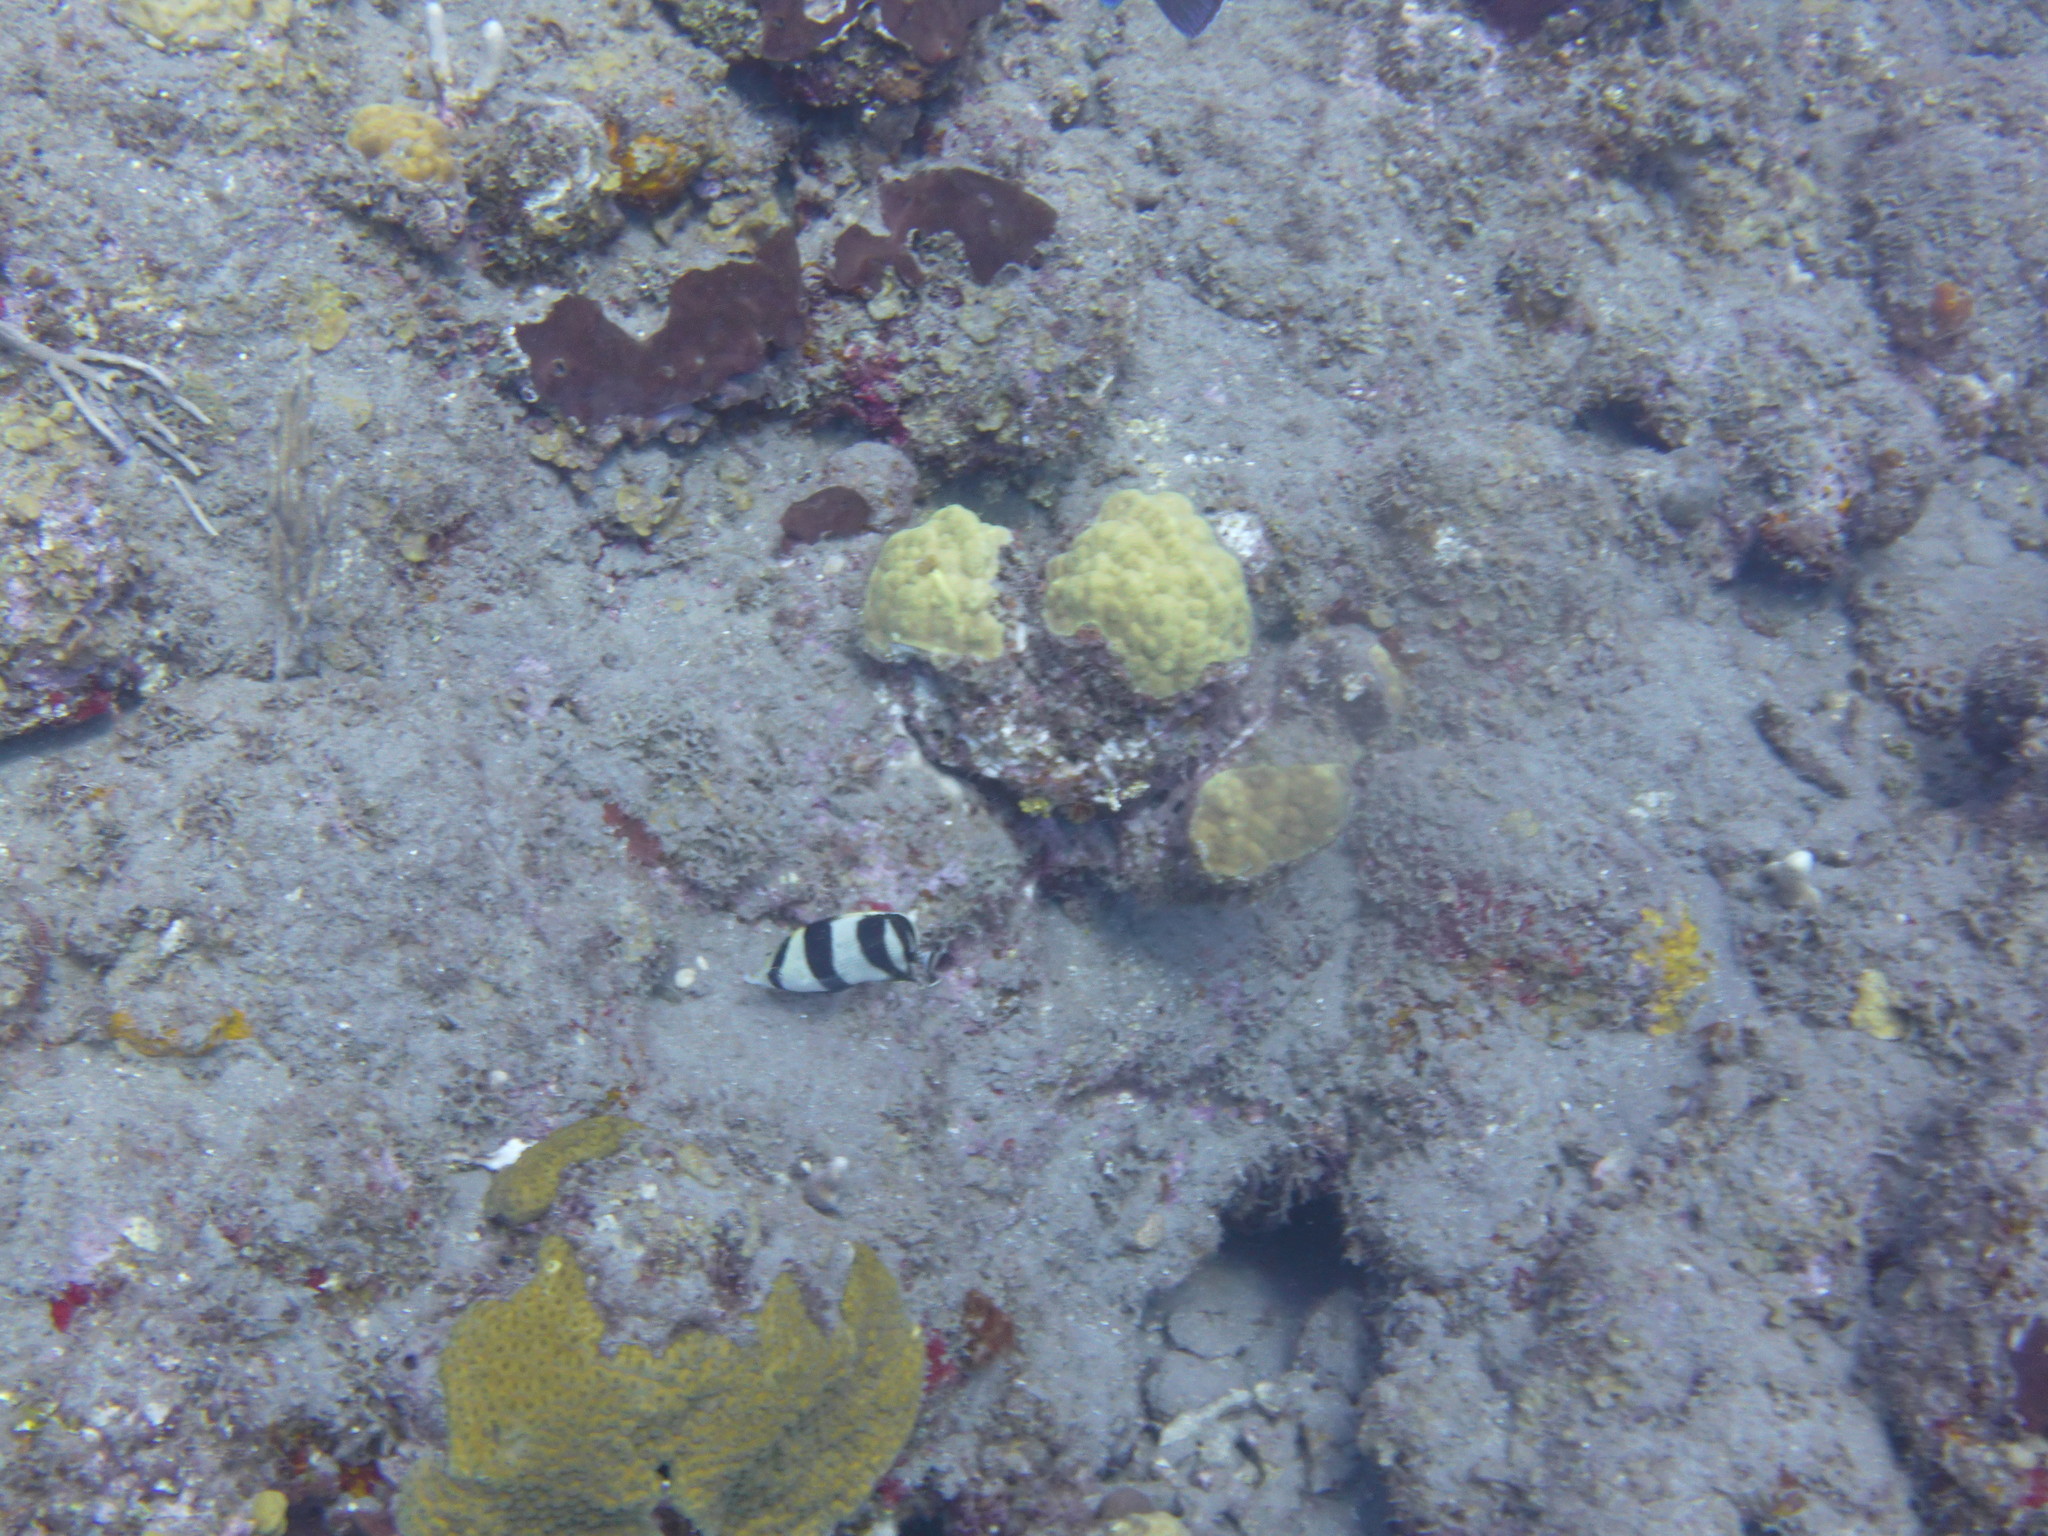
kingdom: Animalia
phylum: Chordata
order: Perciformes
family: Chaetodontidae
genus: Chaetodon
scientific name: Chaetodon striatus
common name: Banded butterflyfish
